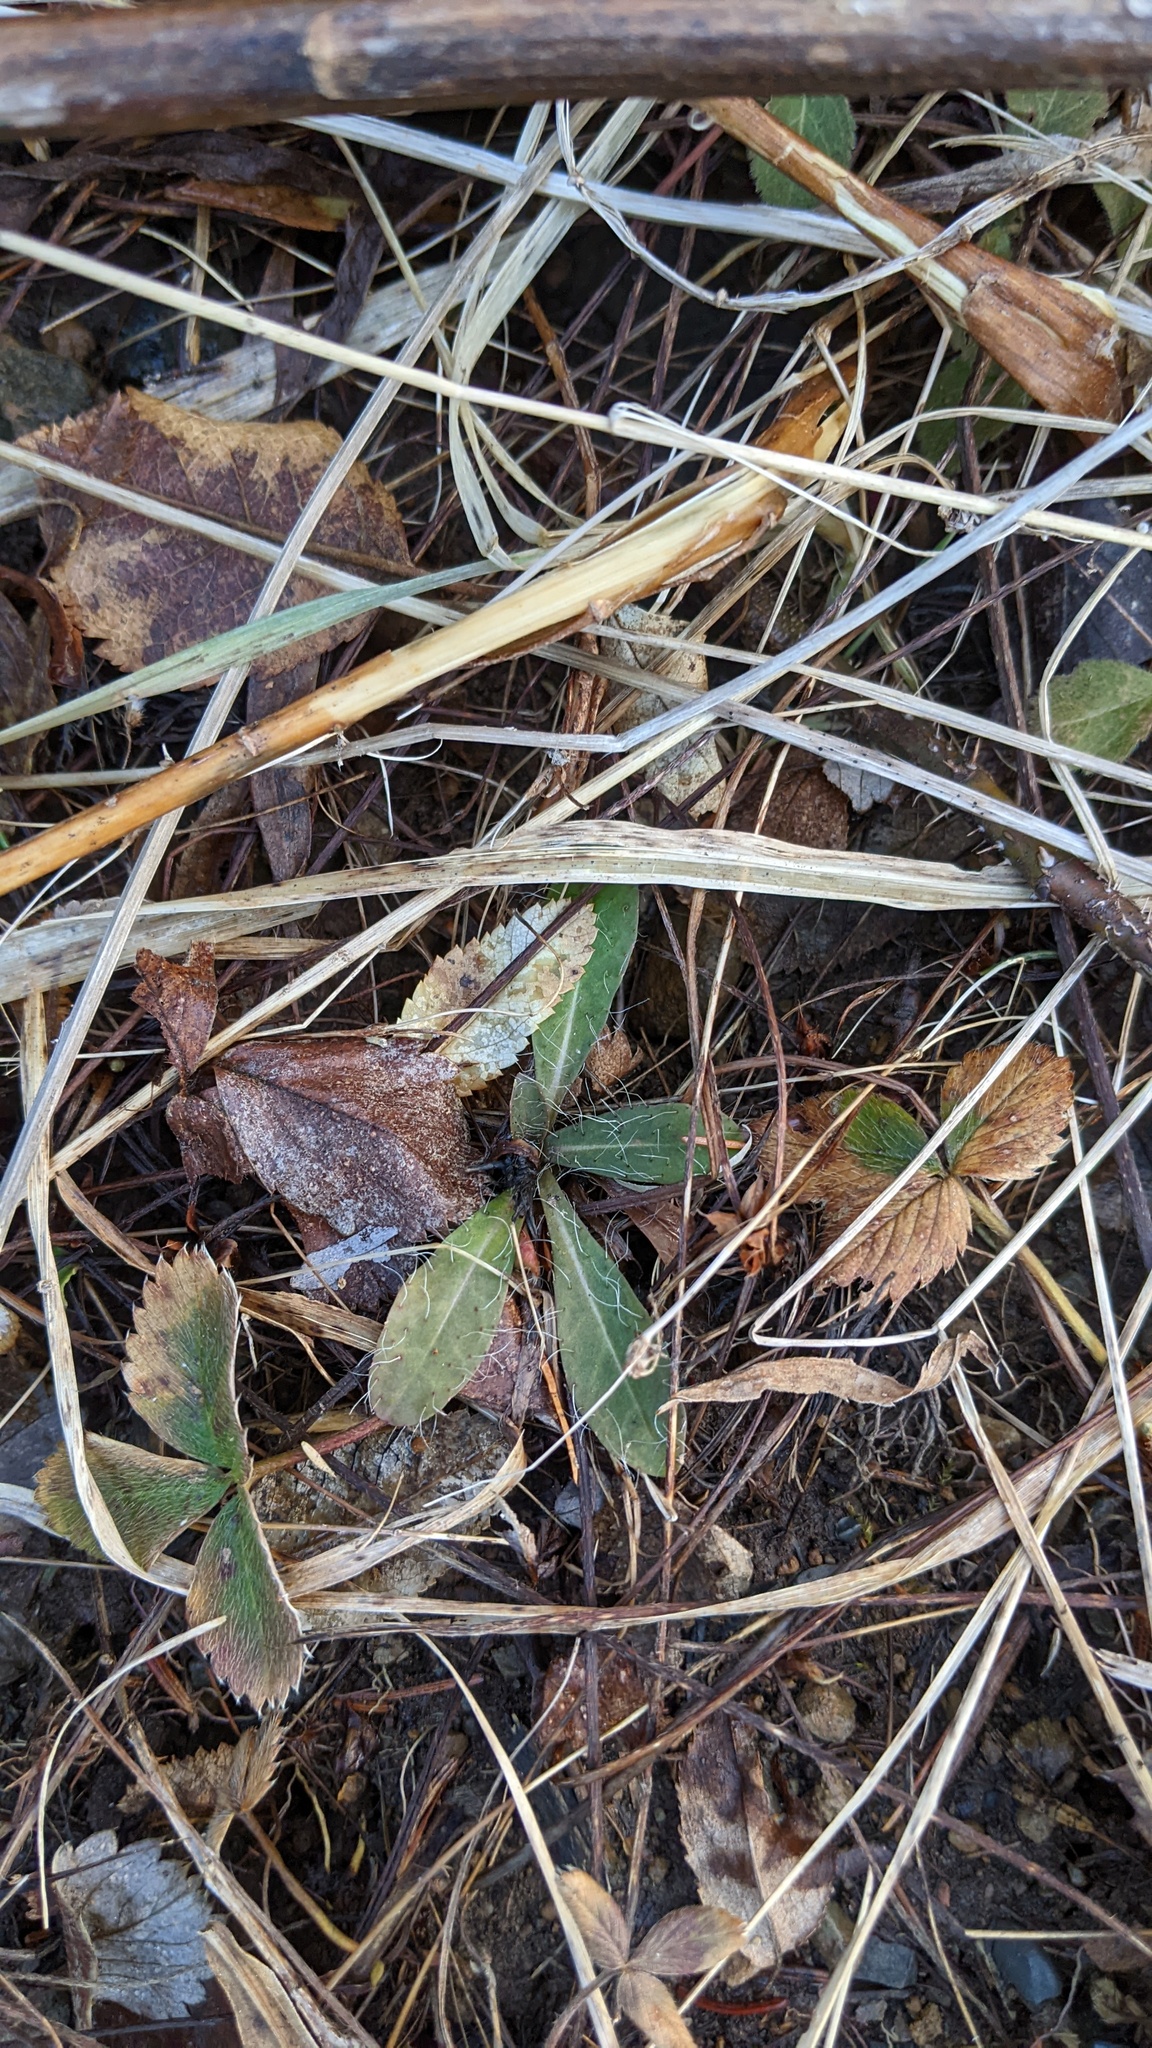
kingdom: Plantae
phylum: Tracheophyta
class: Magnoliopsida
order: Rosales
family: Rosaceae
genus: Fragaria
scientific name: Fragaria virginiana
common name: Thickleaved wild strawberry
